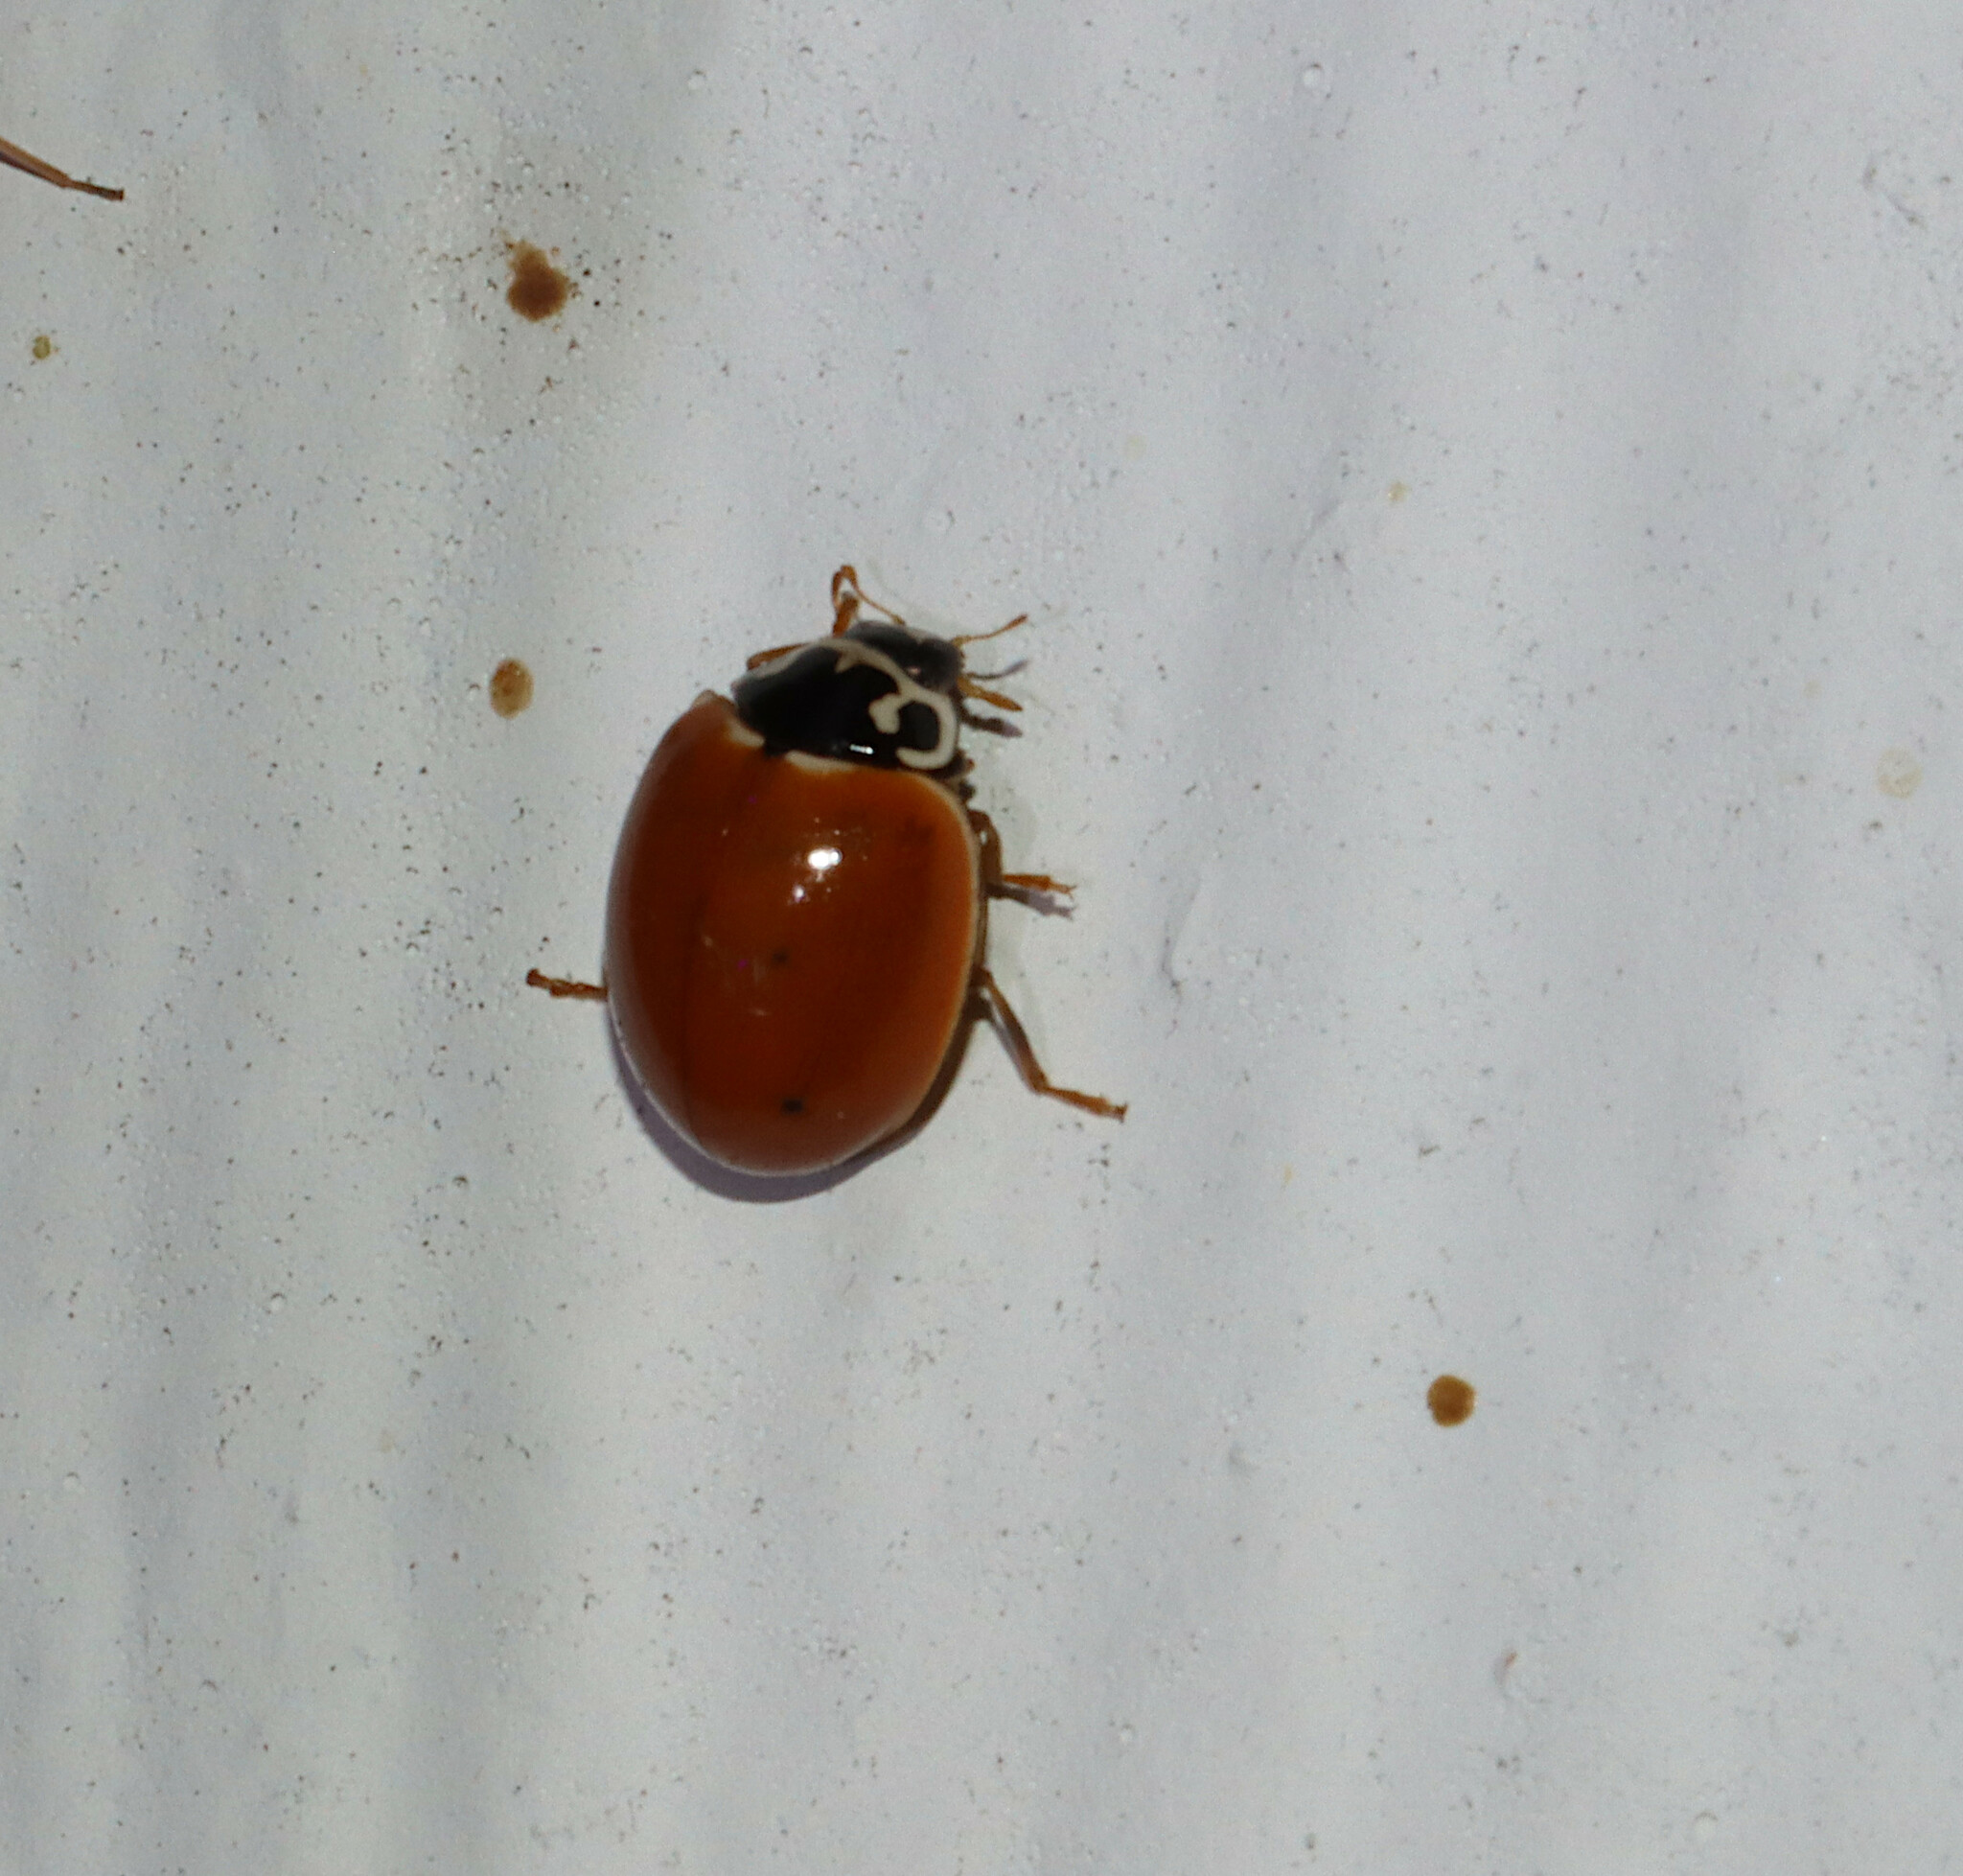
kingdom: Animalia
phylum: Arthropoda
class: Insecta
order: Coleoptera
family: Coccinellidae
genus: Cycloneda
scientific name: Cycloneda munda
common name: Polished lady beetle
